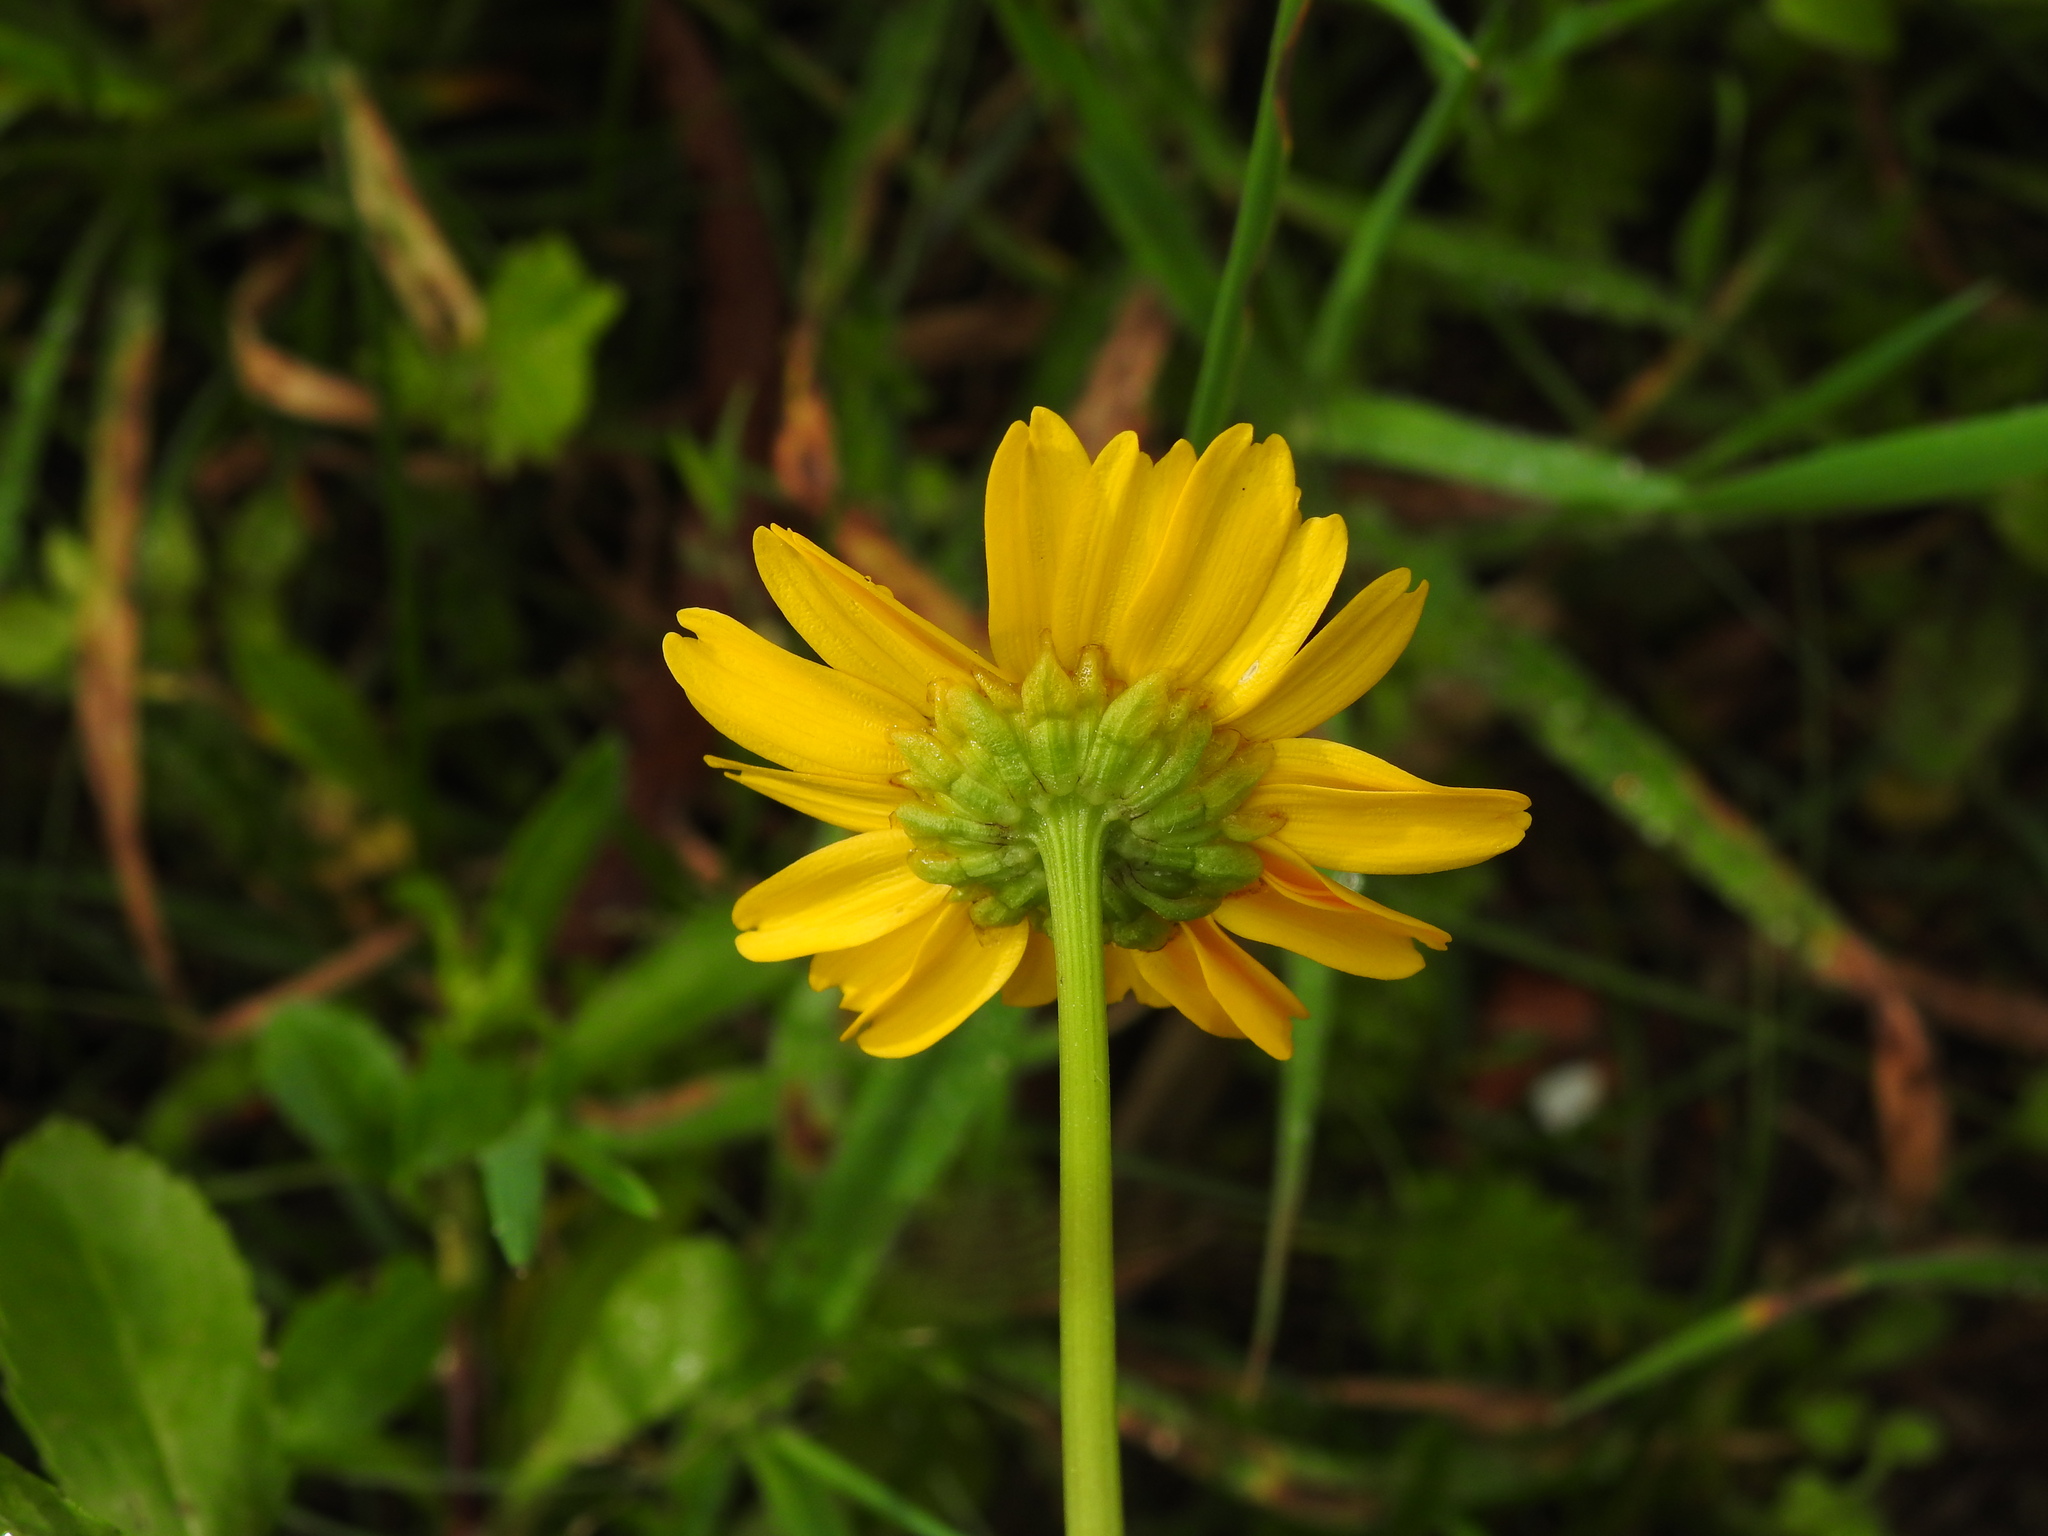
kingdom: Plantae
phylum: Tracheophyta
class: Magnoliopsida
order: Asterales
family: Asteraceae
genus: Coleostephus
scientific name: Coleostephus myconis
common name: Mediterranean marigold
